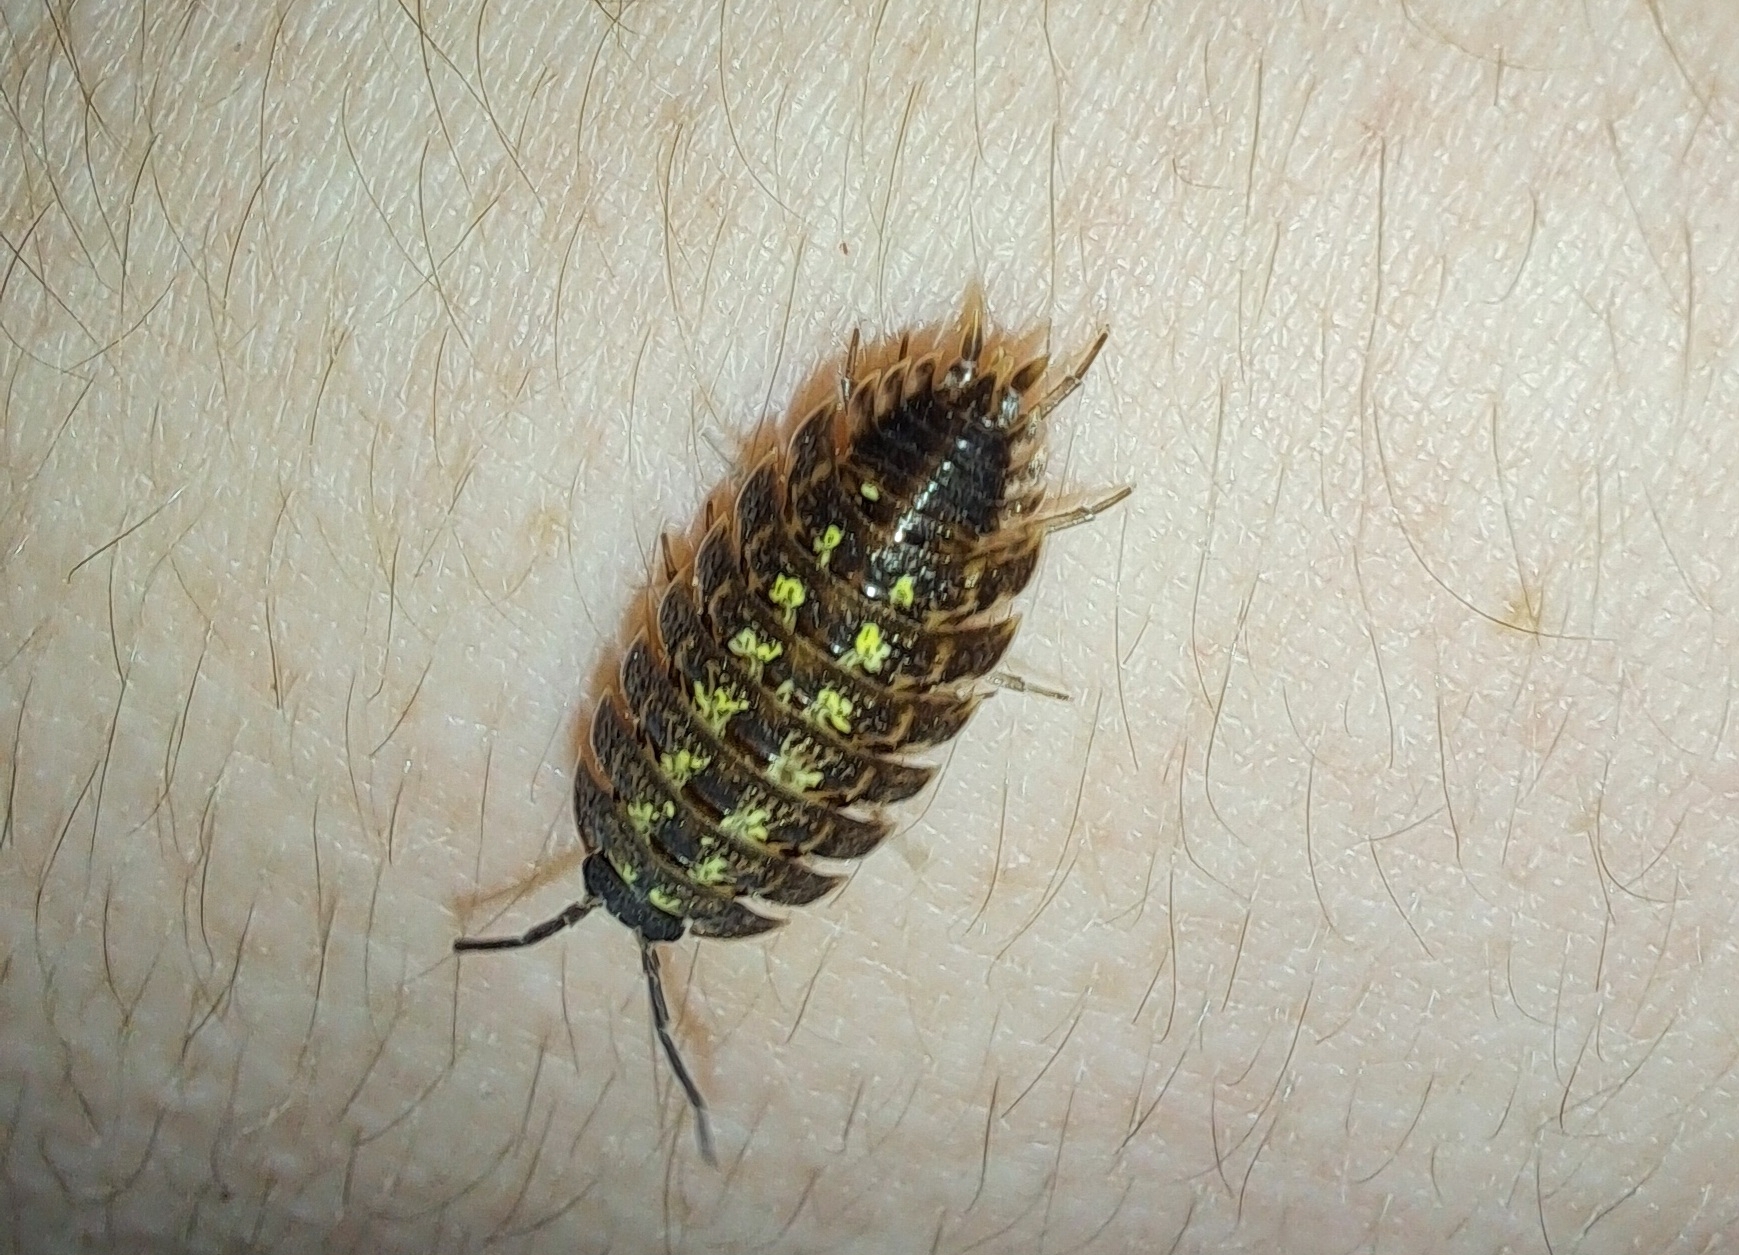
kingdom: Animalia
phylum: Arthropoda
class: Malacostraca
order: Isopoda
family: Porcellionidae
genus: Porcellio
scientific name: Porcellio spinicornis
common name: Painted woodlouse
